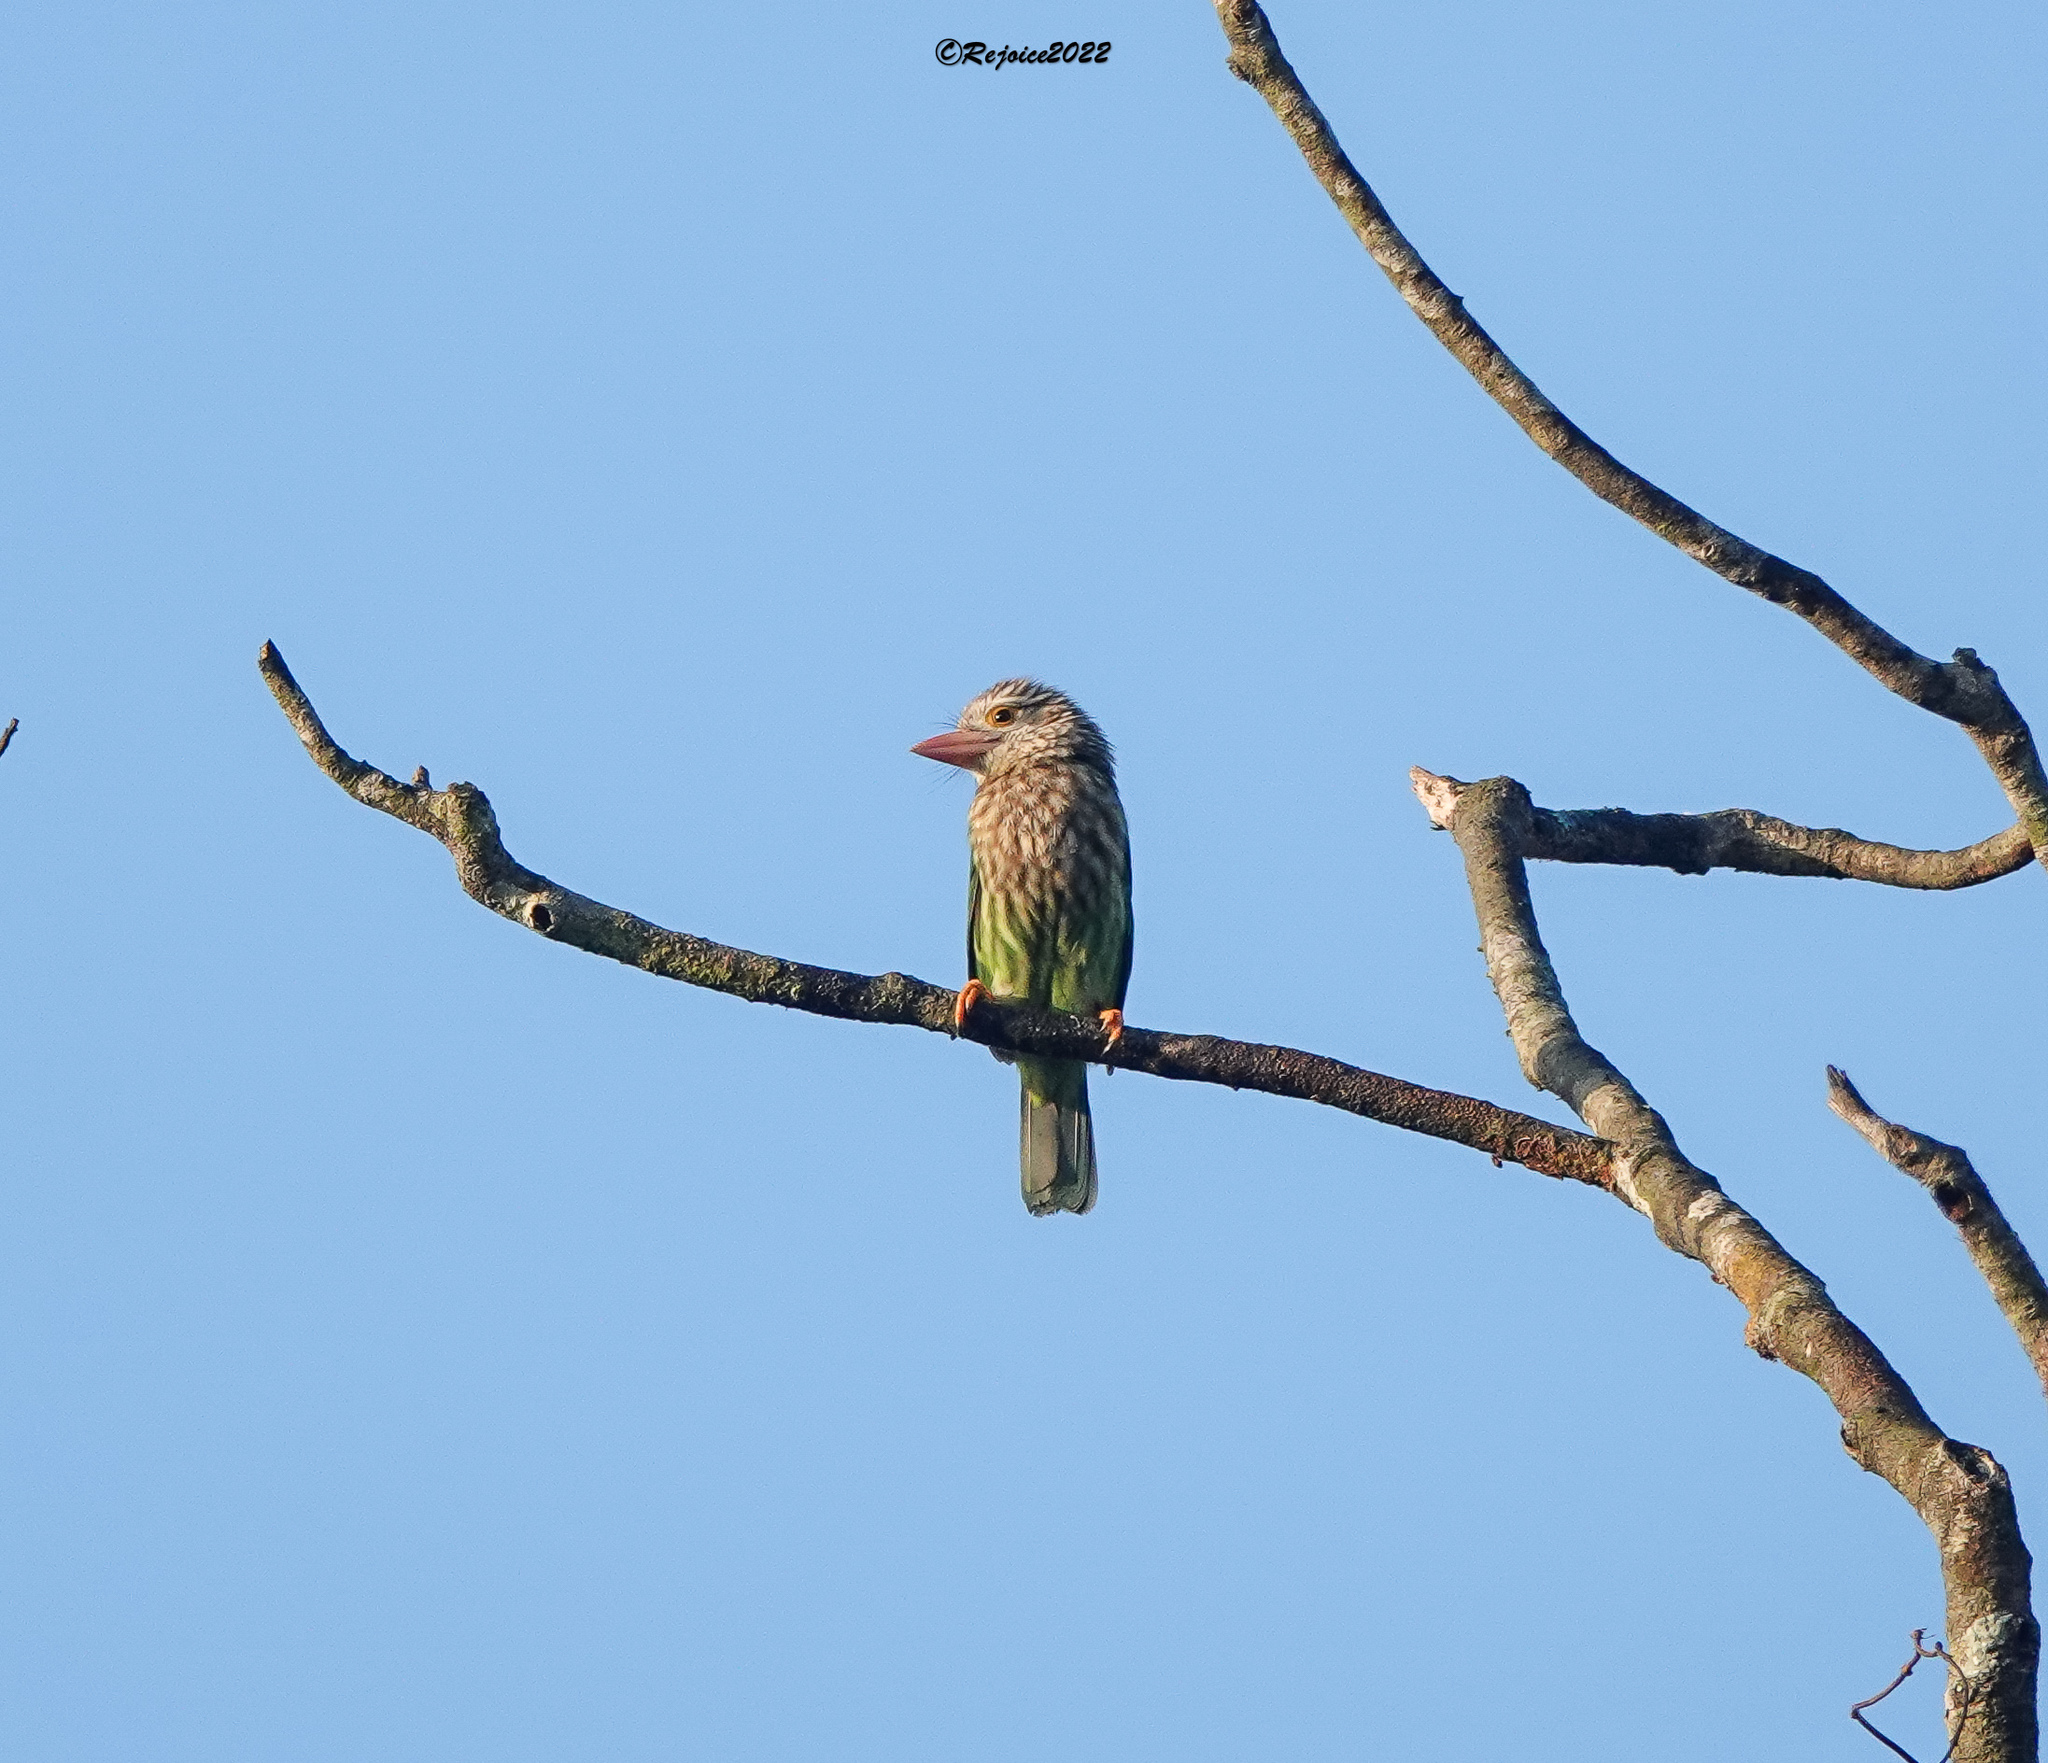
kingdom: Animalia
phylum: Chordata
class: Aves
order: Piciformes
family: Megalaimidae
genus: Psilopogon
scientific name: Psilopogon lineatus
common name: Lineated barbet
